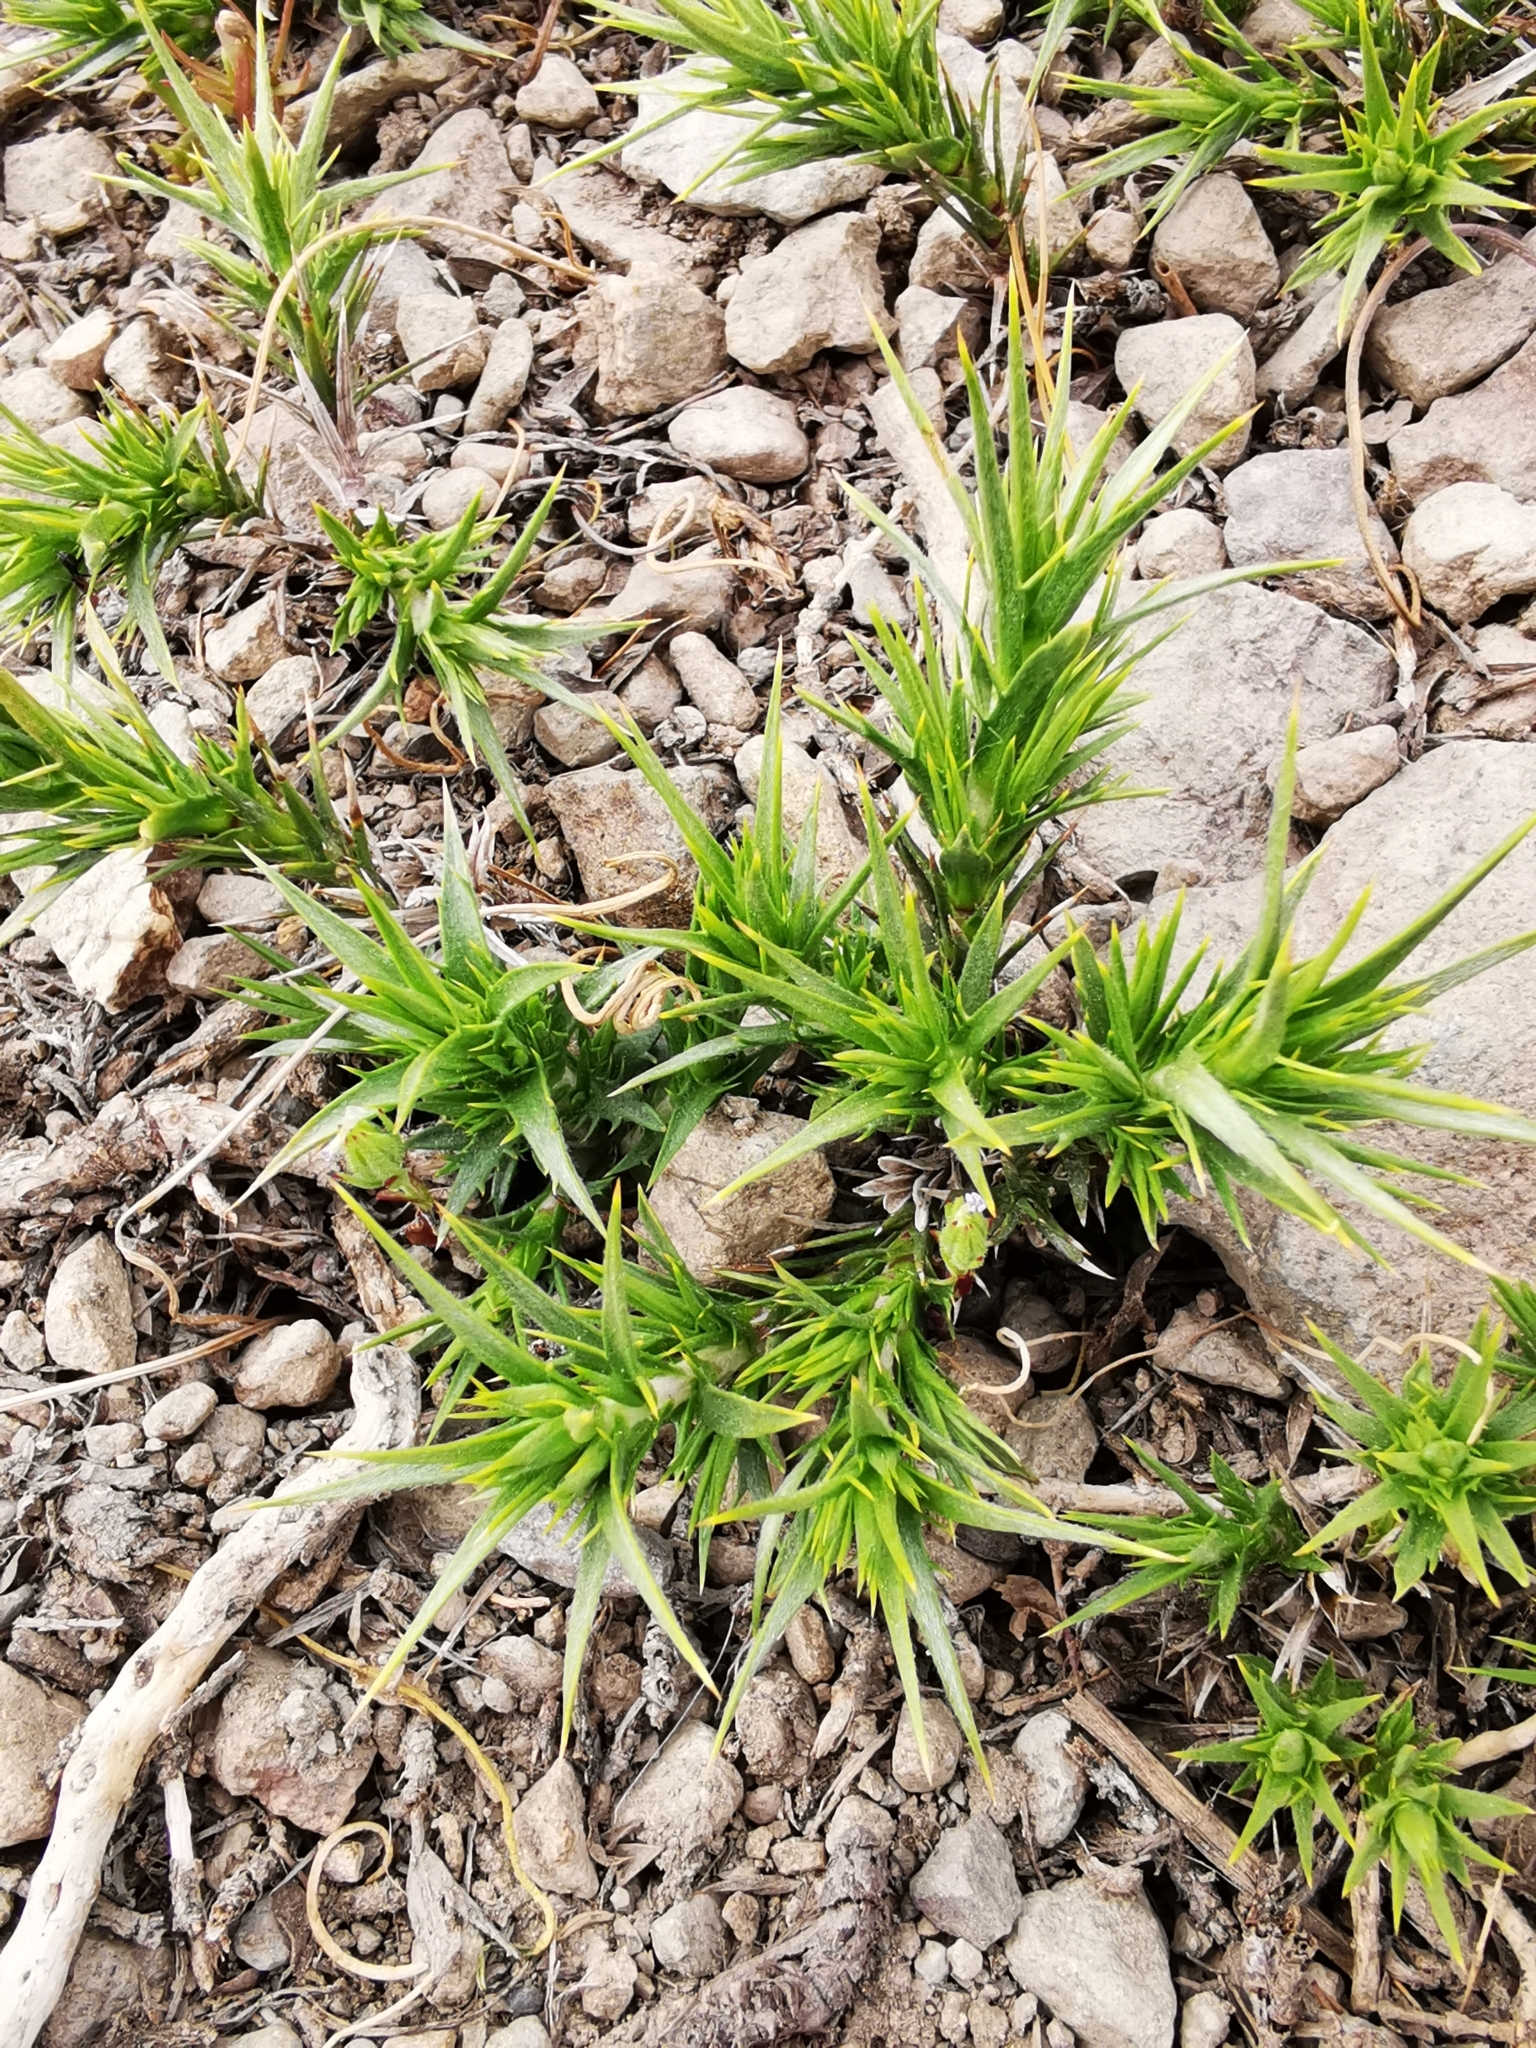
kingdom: Plantae
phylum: Tracheophyta
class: Magnoliopsida
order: Asterales
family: Asteraceae
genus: Nassauvia
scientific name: Nassauvia acerosa
